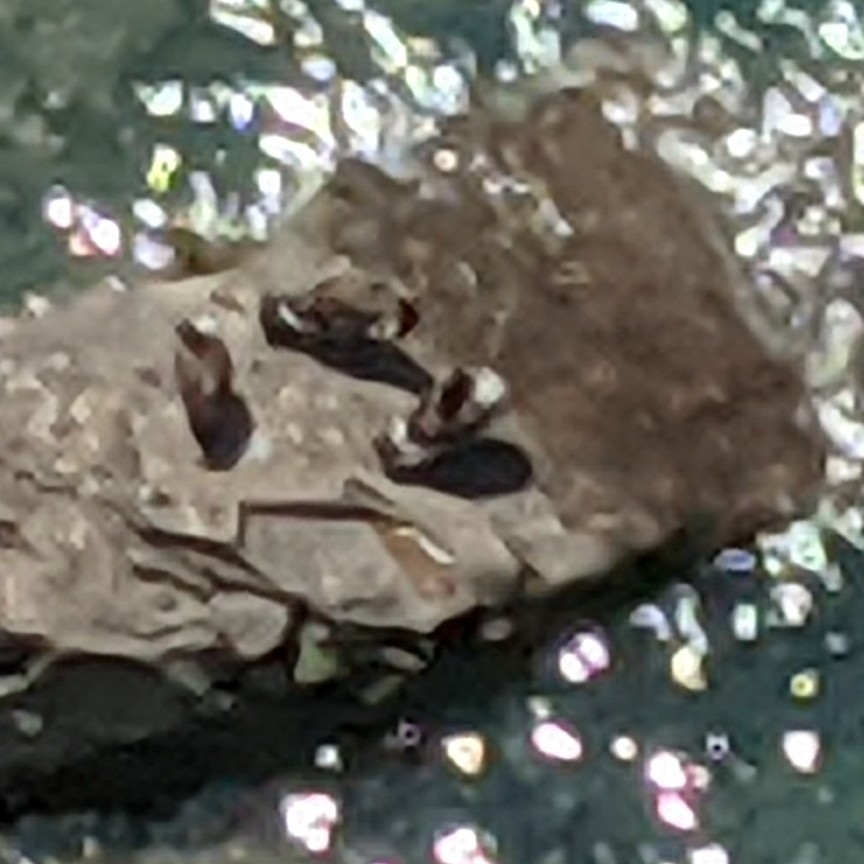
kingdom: Animalia
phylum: Chordata
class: Aves
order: Anseriformes
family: Anatidae
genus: Branta
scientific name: Branta canadensis
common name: Canada goose
